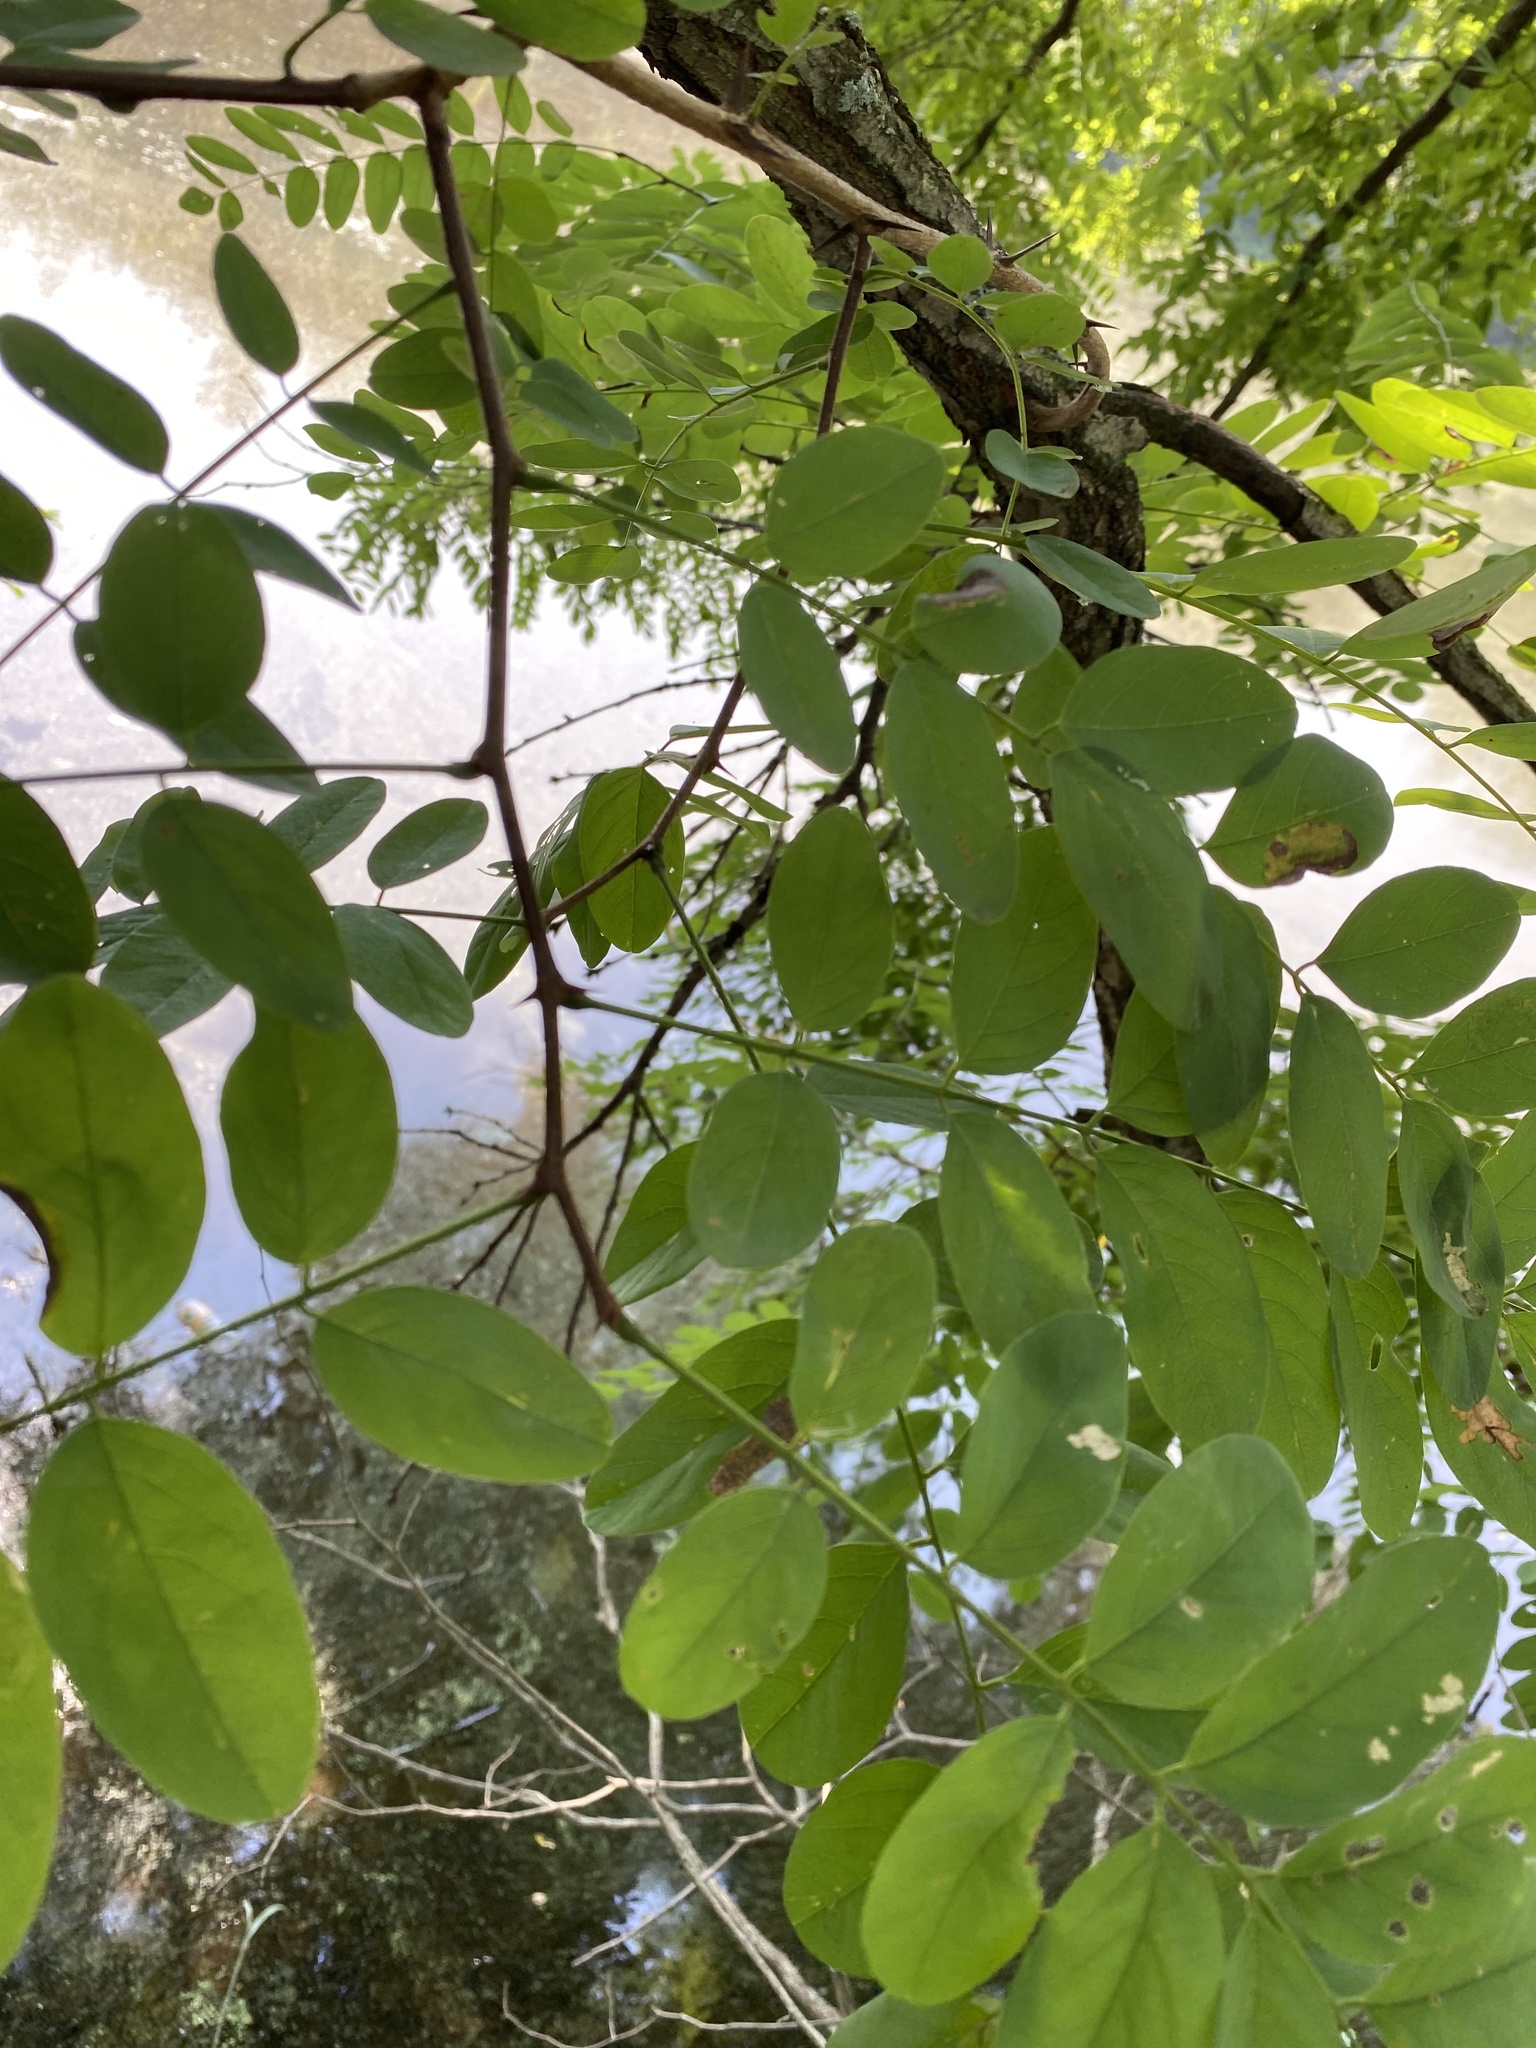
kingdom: Plantae
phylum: Tracheophyta
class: Magnoliopsida
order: Fabales
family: Fabaceae
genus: Robinia
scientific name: Robinia pseudoacacia
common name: Black locust
